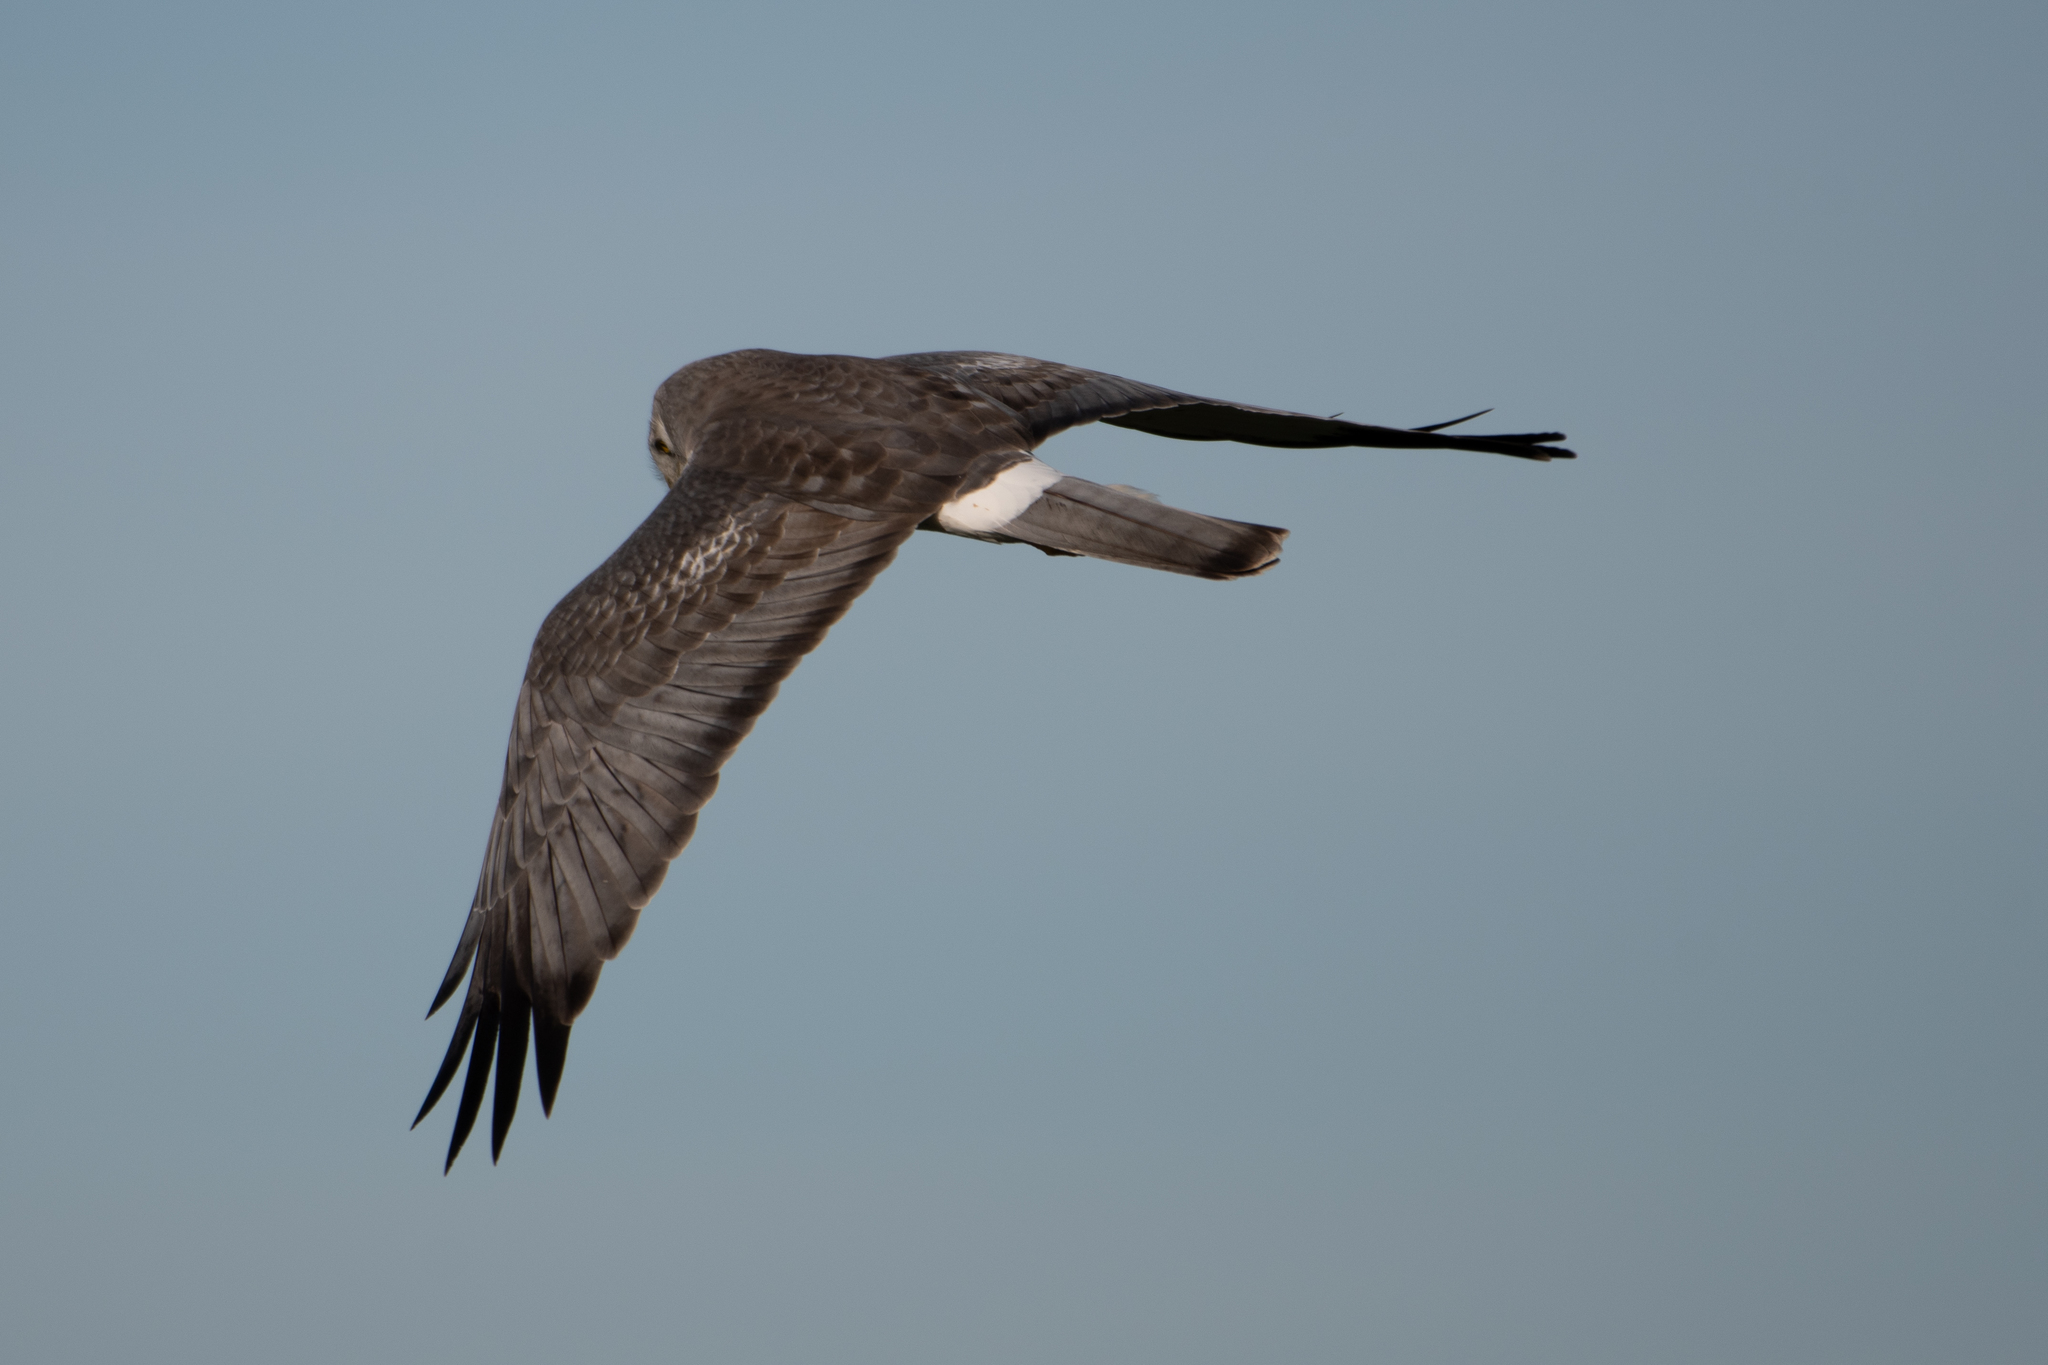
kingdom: Animalia
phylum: Chordata
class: Aves
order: Accipitriformes
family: Accipitridae
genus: Circus
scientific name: Circus cyaneus
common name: Hen harrier
